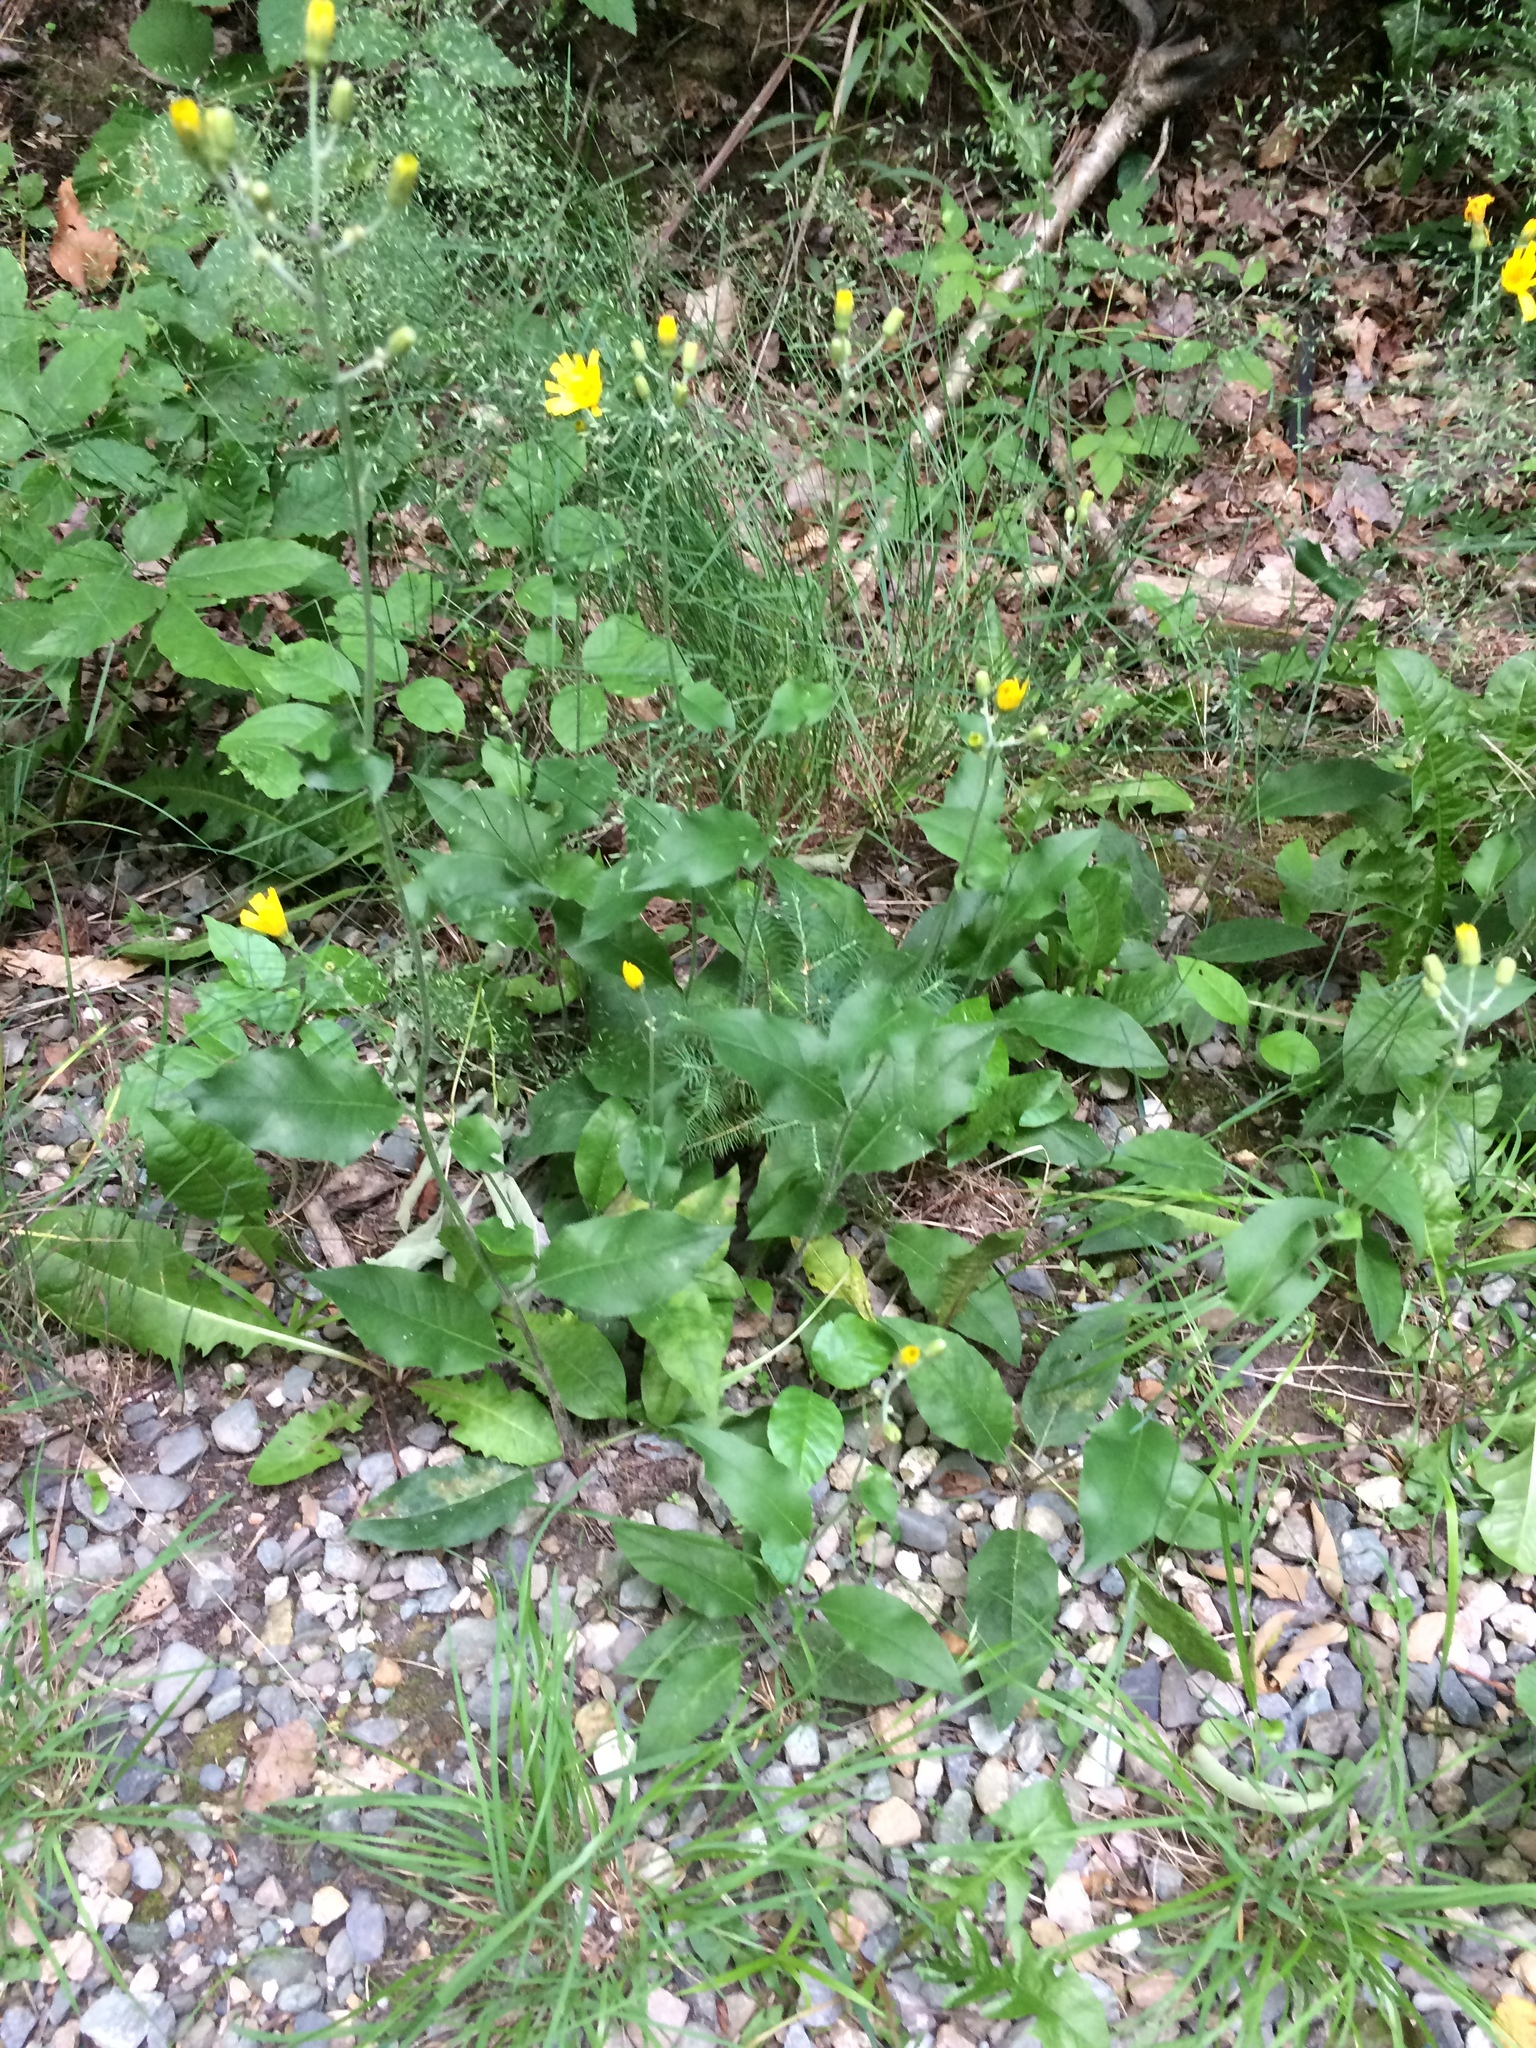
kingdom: Plantae
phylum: Tracheophyta
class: Magnoliopsida
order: Asterales
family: Asteraceae
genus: Hieracium
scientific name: Hieracium lachenalii
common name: Common hawkweed
